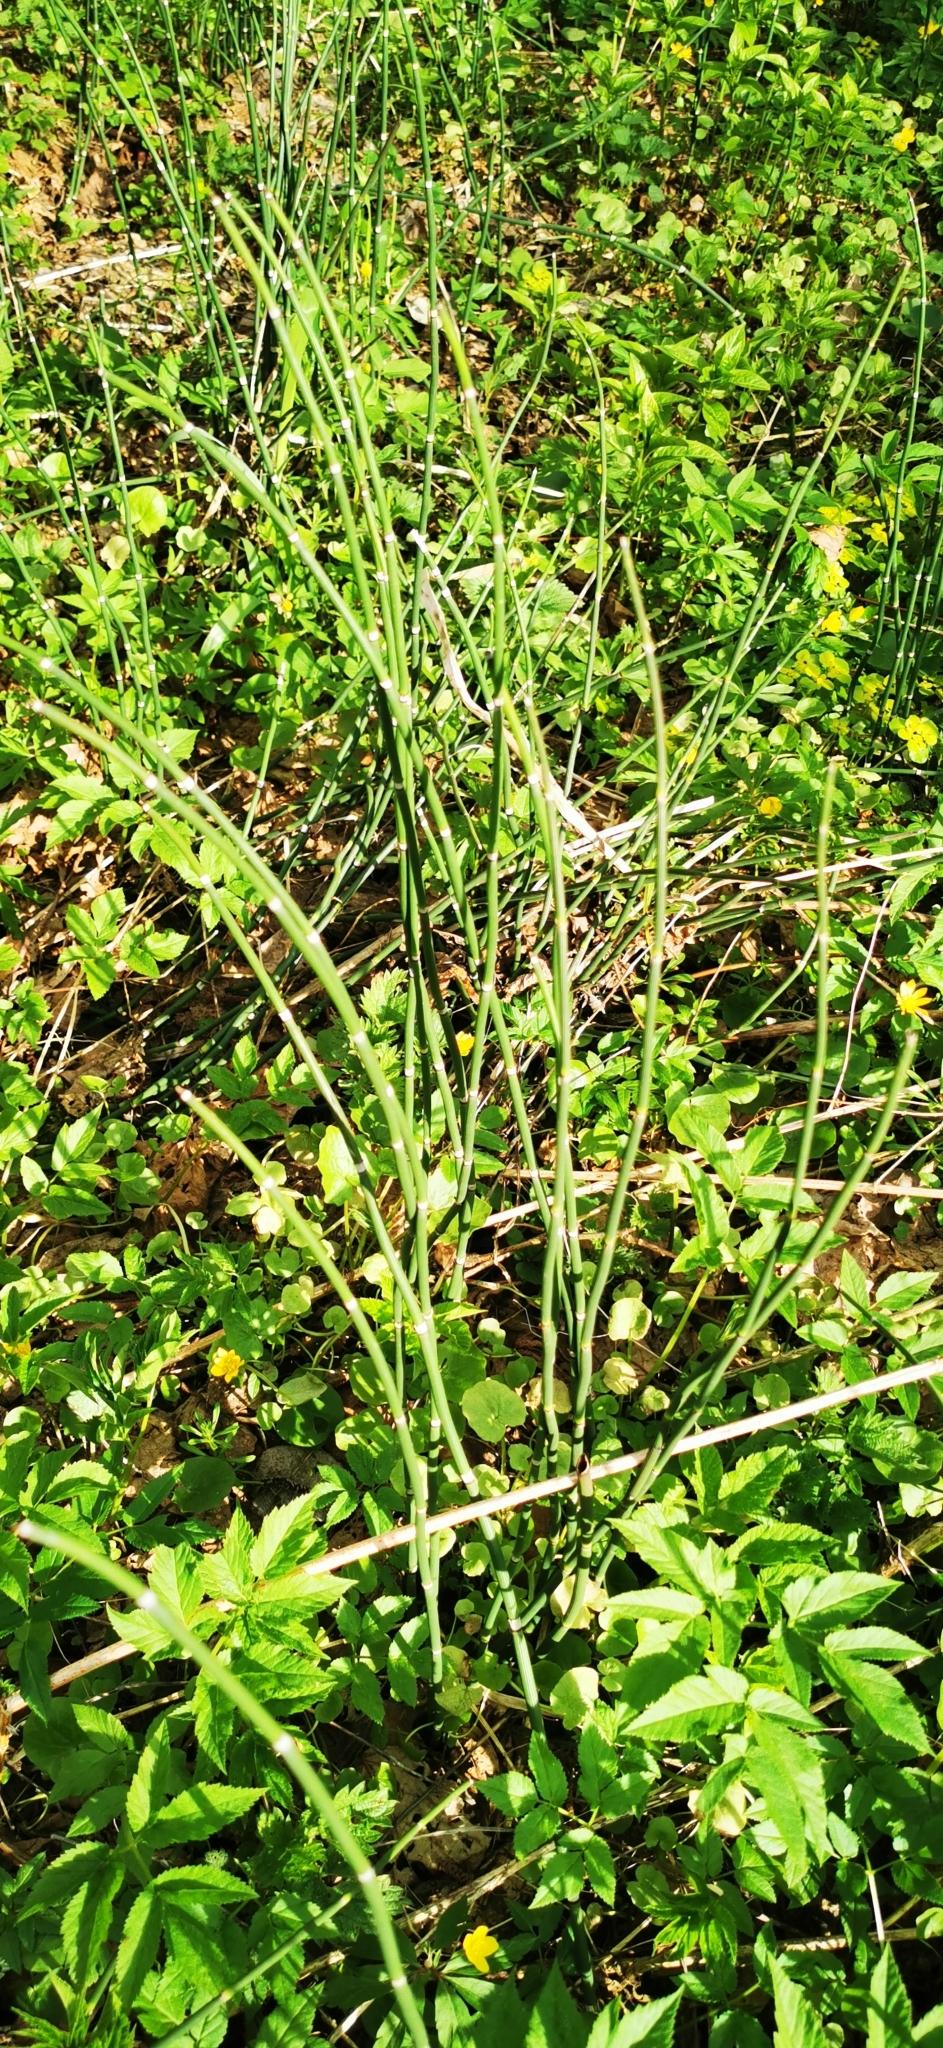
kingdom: Plantae
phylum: Tracheophyta
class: Polypodiopsida
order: Equisetales
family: Equisetaceae
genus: Equisetum
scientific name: Equisetum hyemale
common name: Rough horsetail
